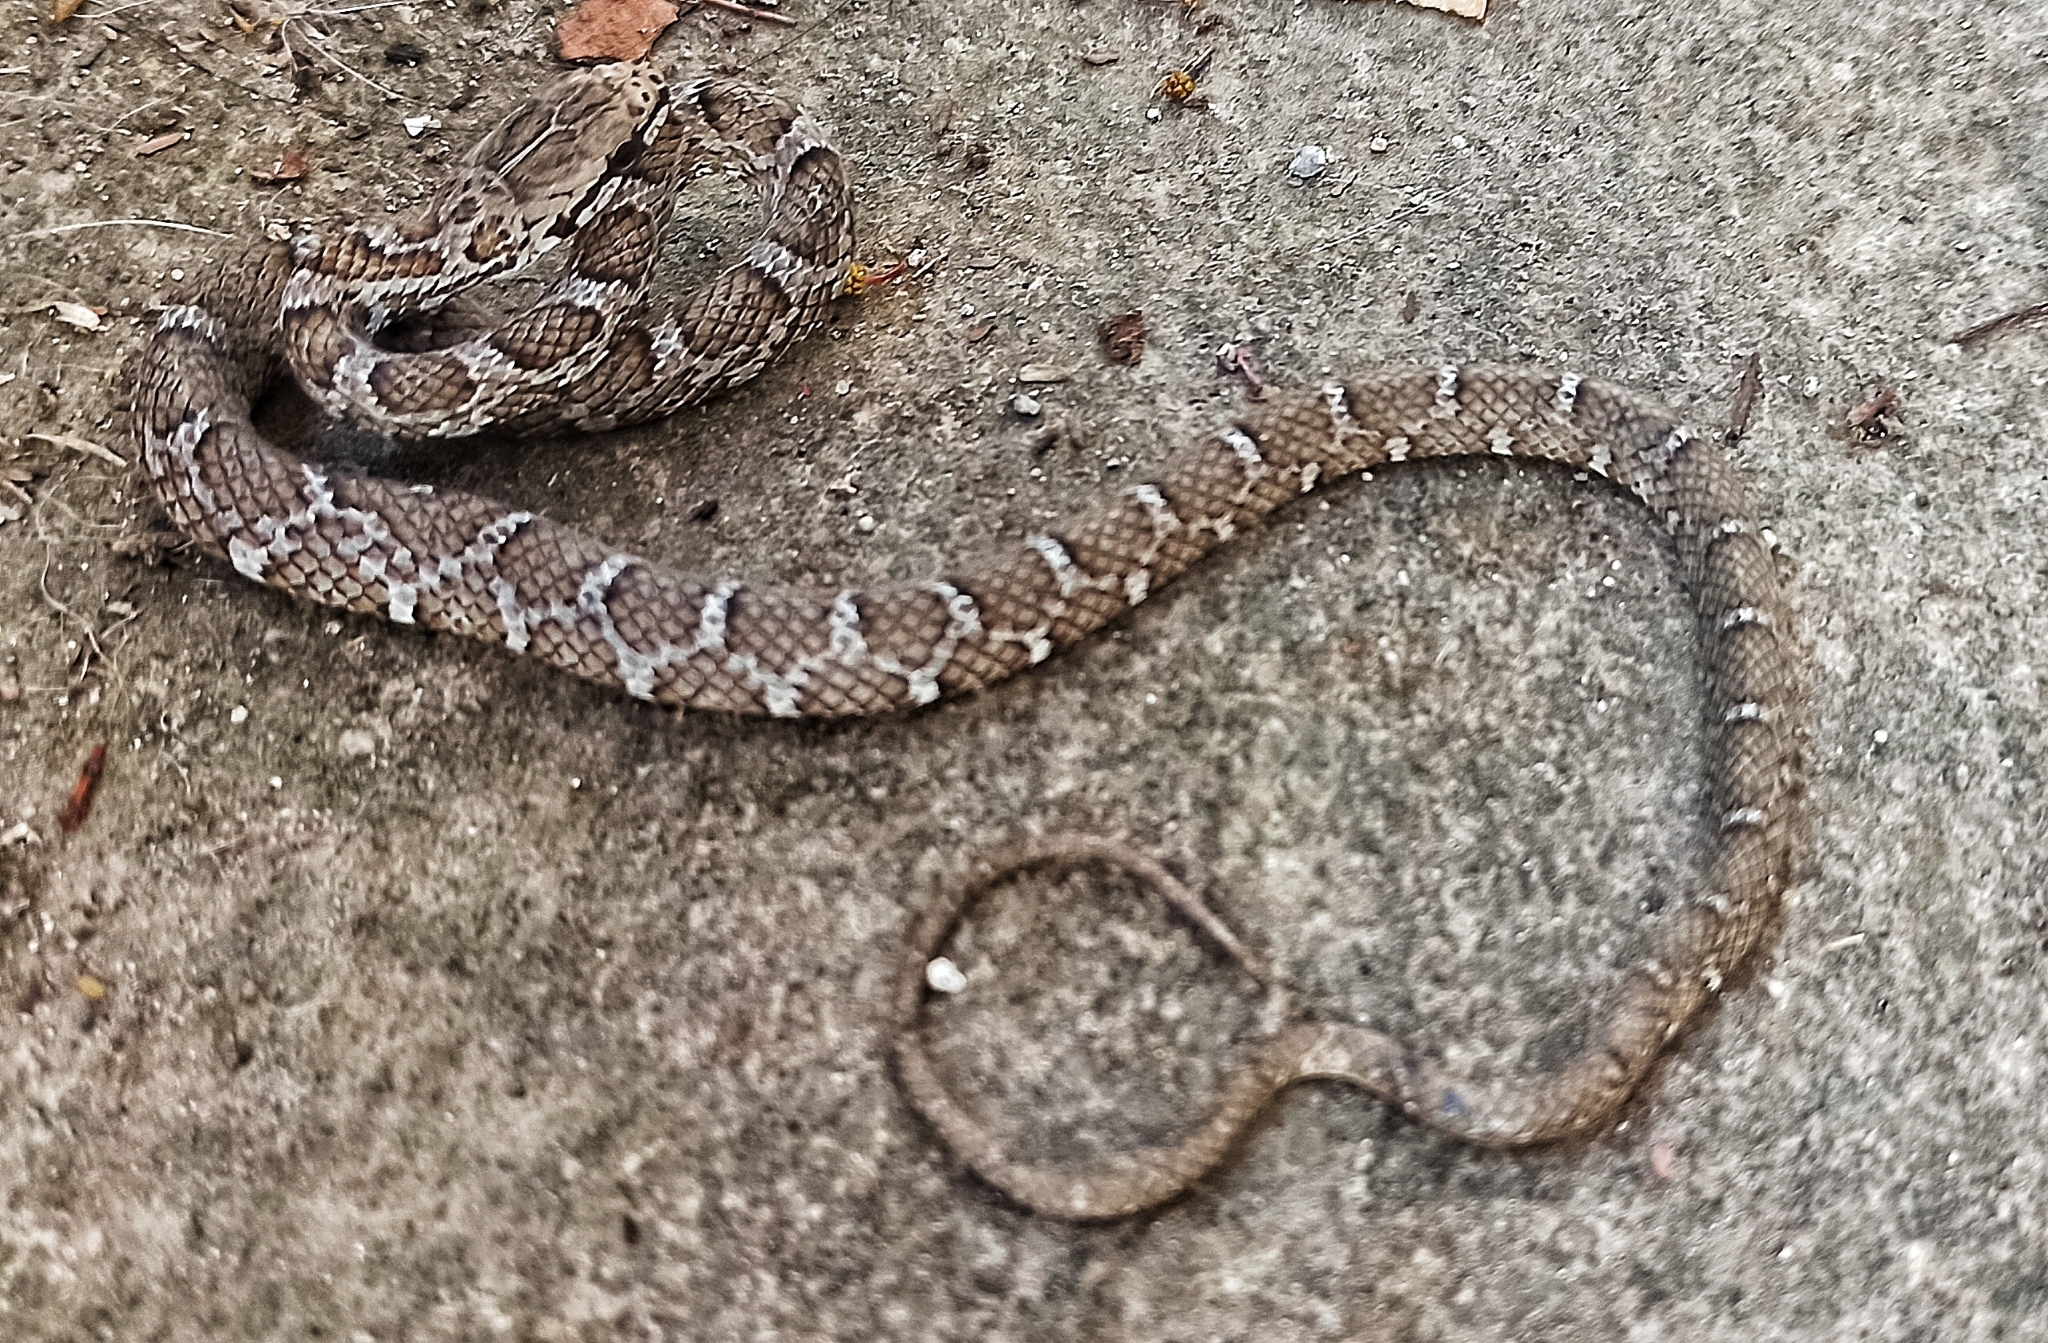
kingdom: Animalia
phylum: Chordata
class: Squamata
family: Colubridae
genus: Mastigodryas
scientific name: Mastigodryas pulchriceps
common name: Cope's tropical racer
